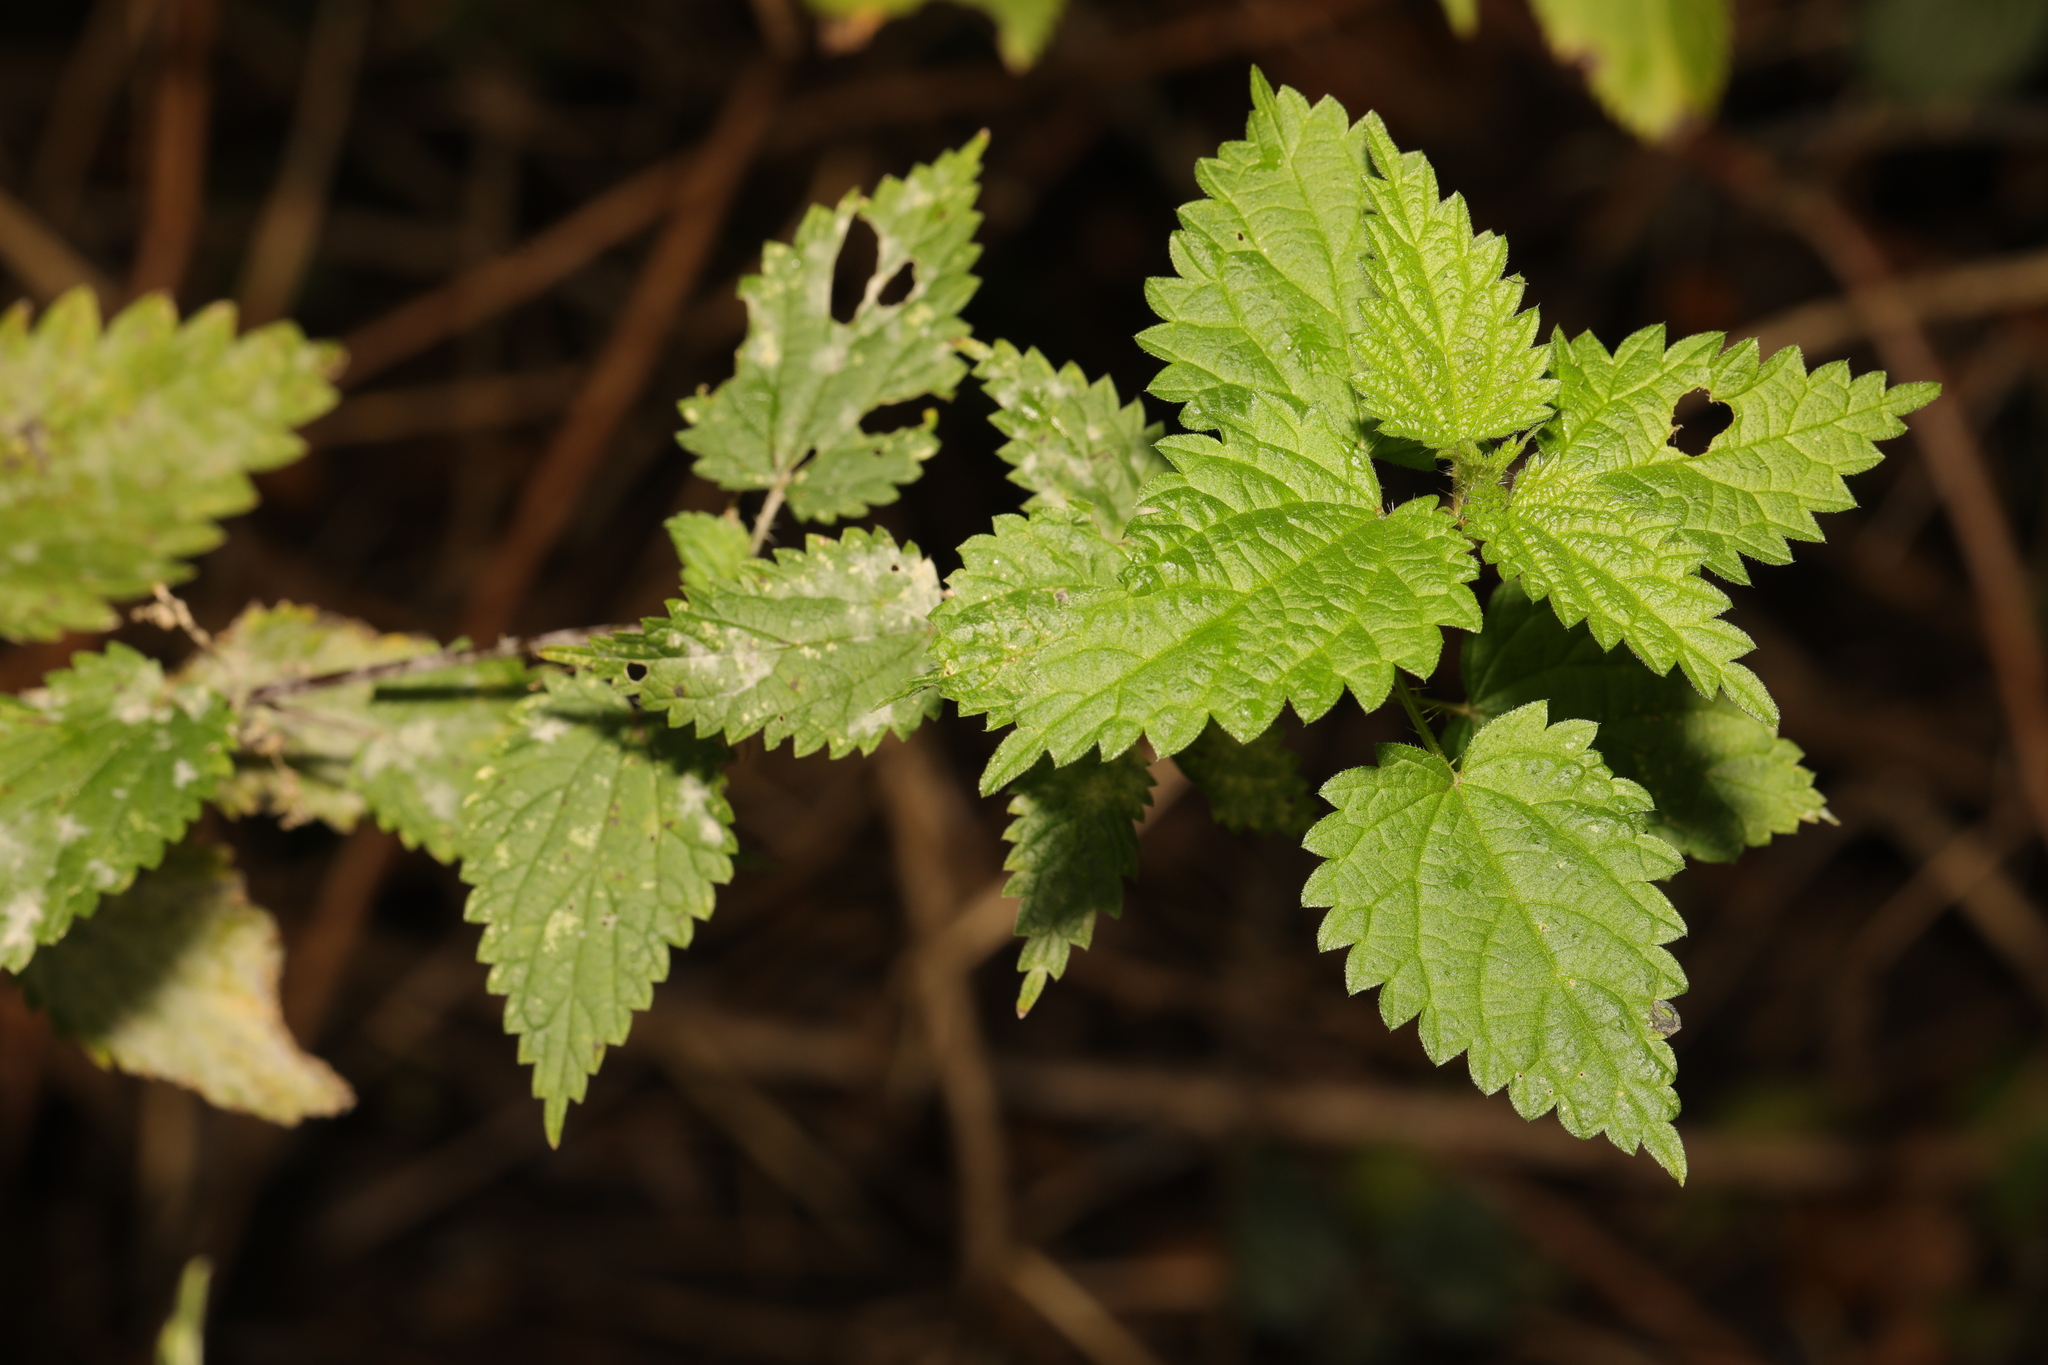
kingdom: Plantae
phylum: Tracheophyta
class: Magnoliopsida
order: Rosales
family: Urticaceae
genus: Urtica
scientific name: Urtica dioica
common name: Common nettle
